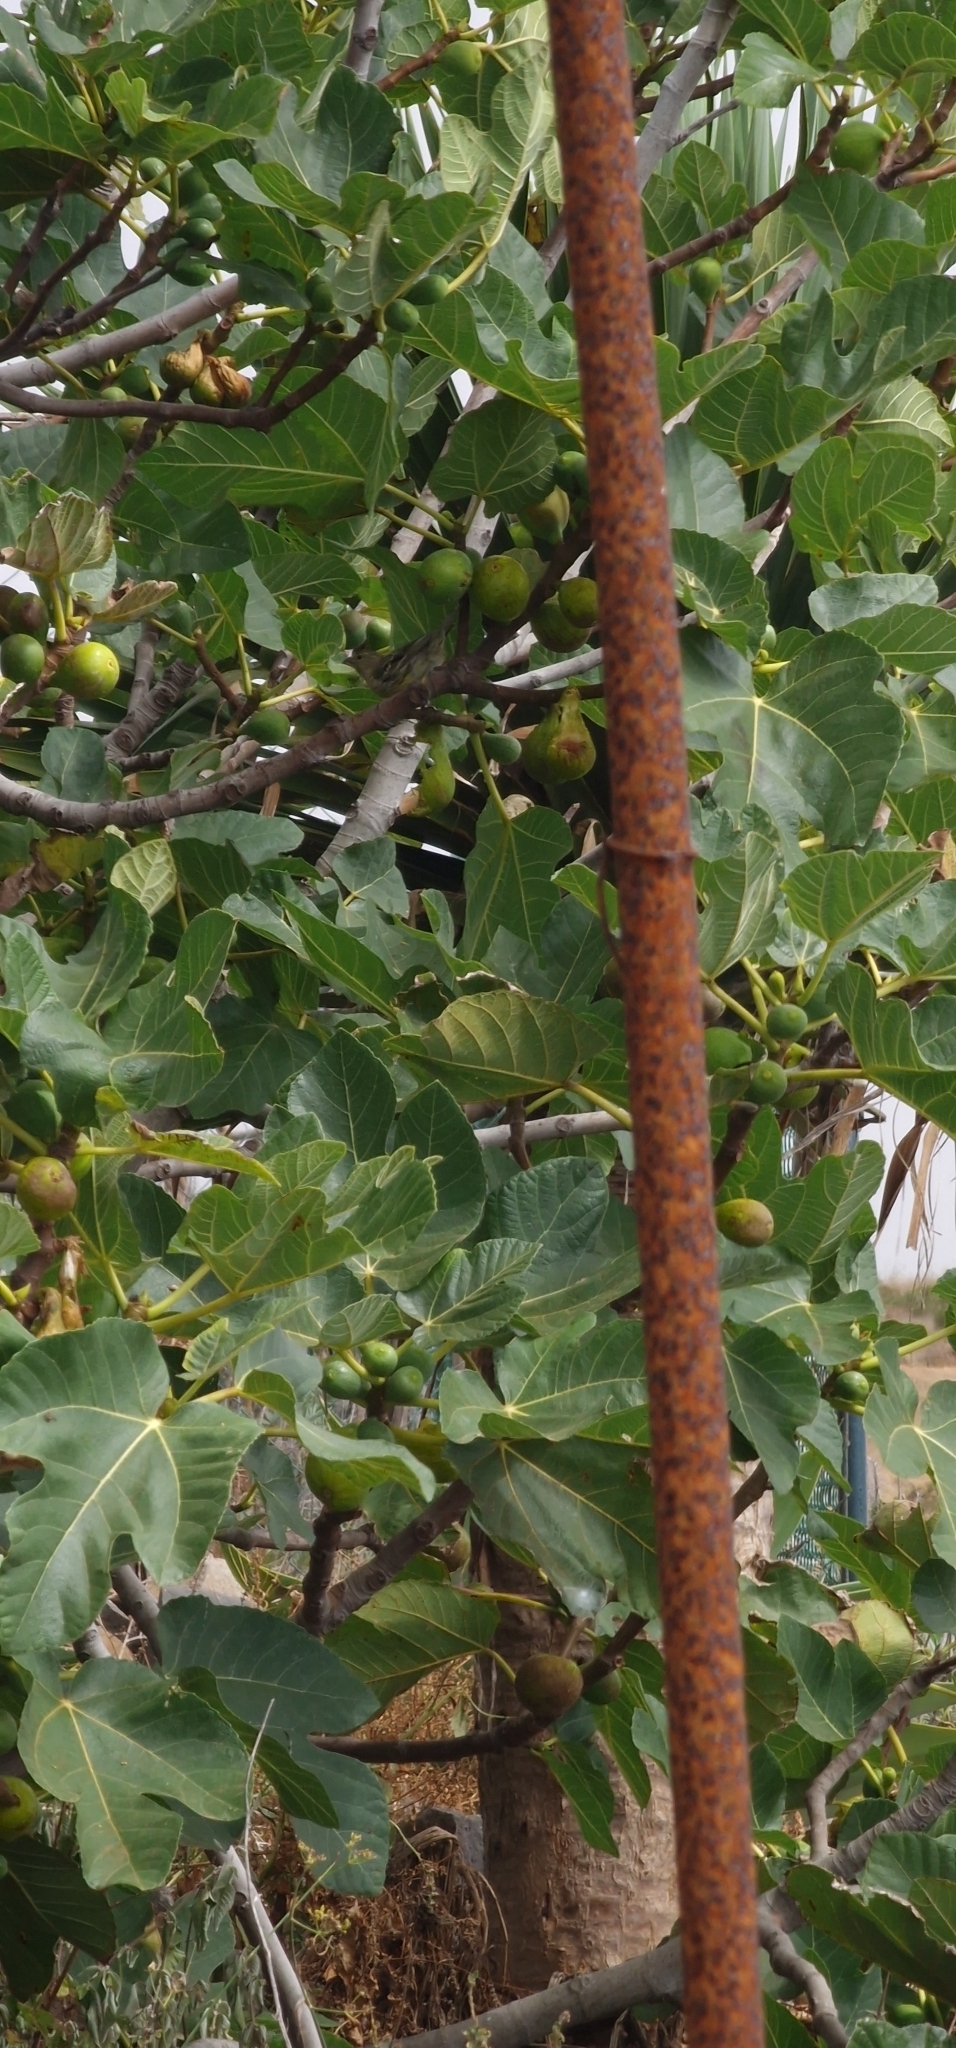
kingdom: Animalia
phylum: Chordata
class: Aves
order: Passeriformes
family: Fringillidae
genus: Serinus
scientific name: Serinus canaria
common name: Atlantic canary
